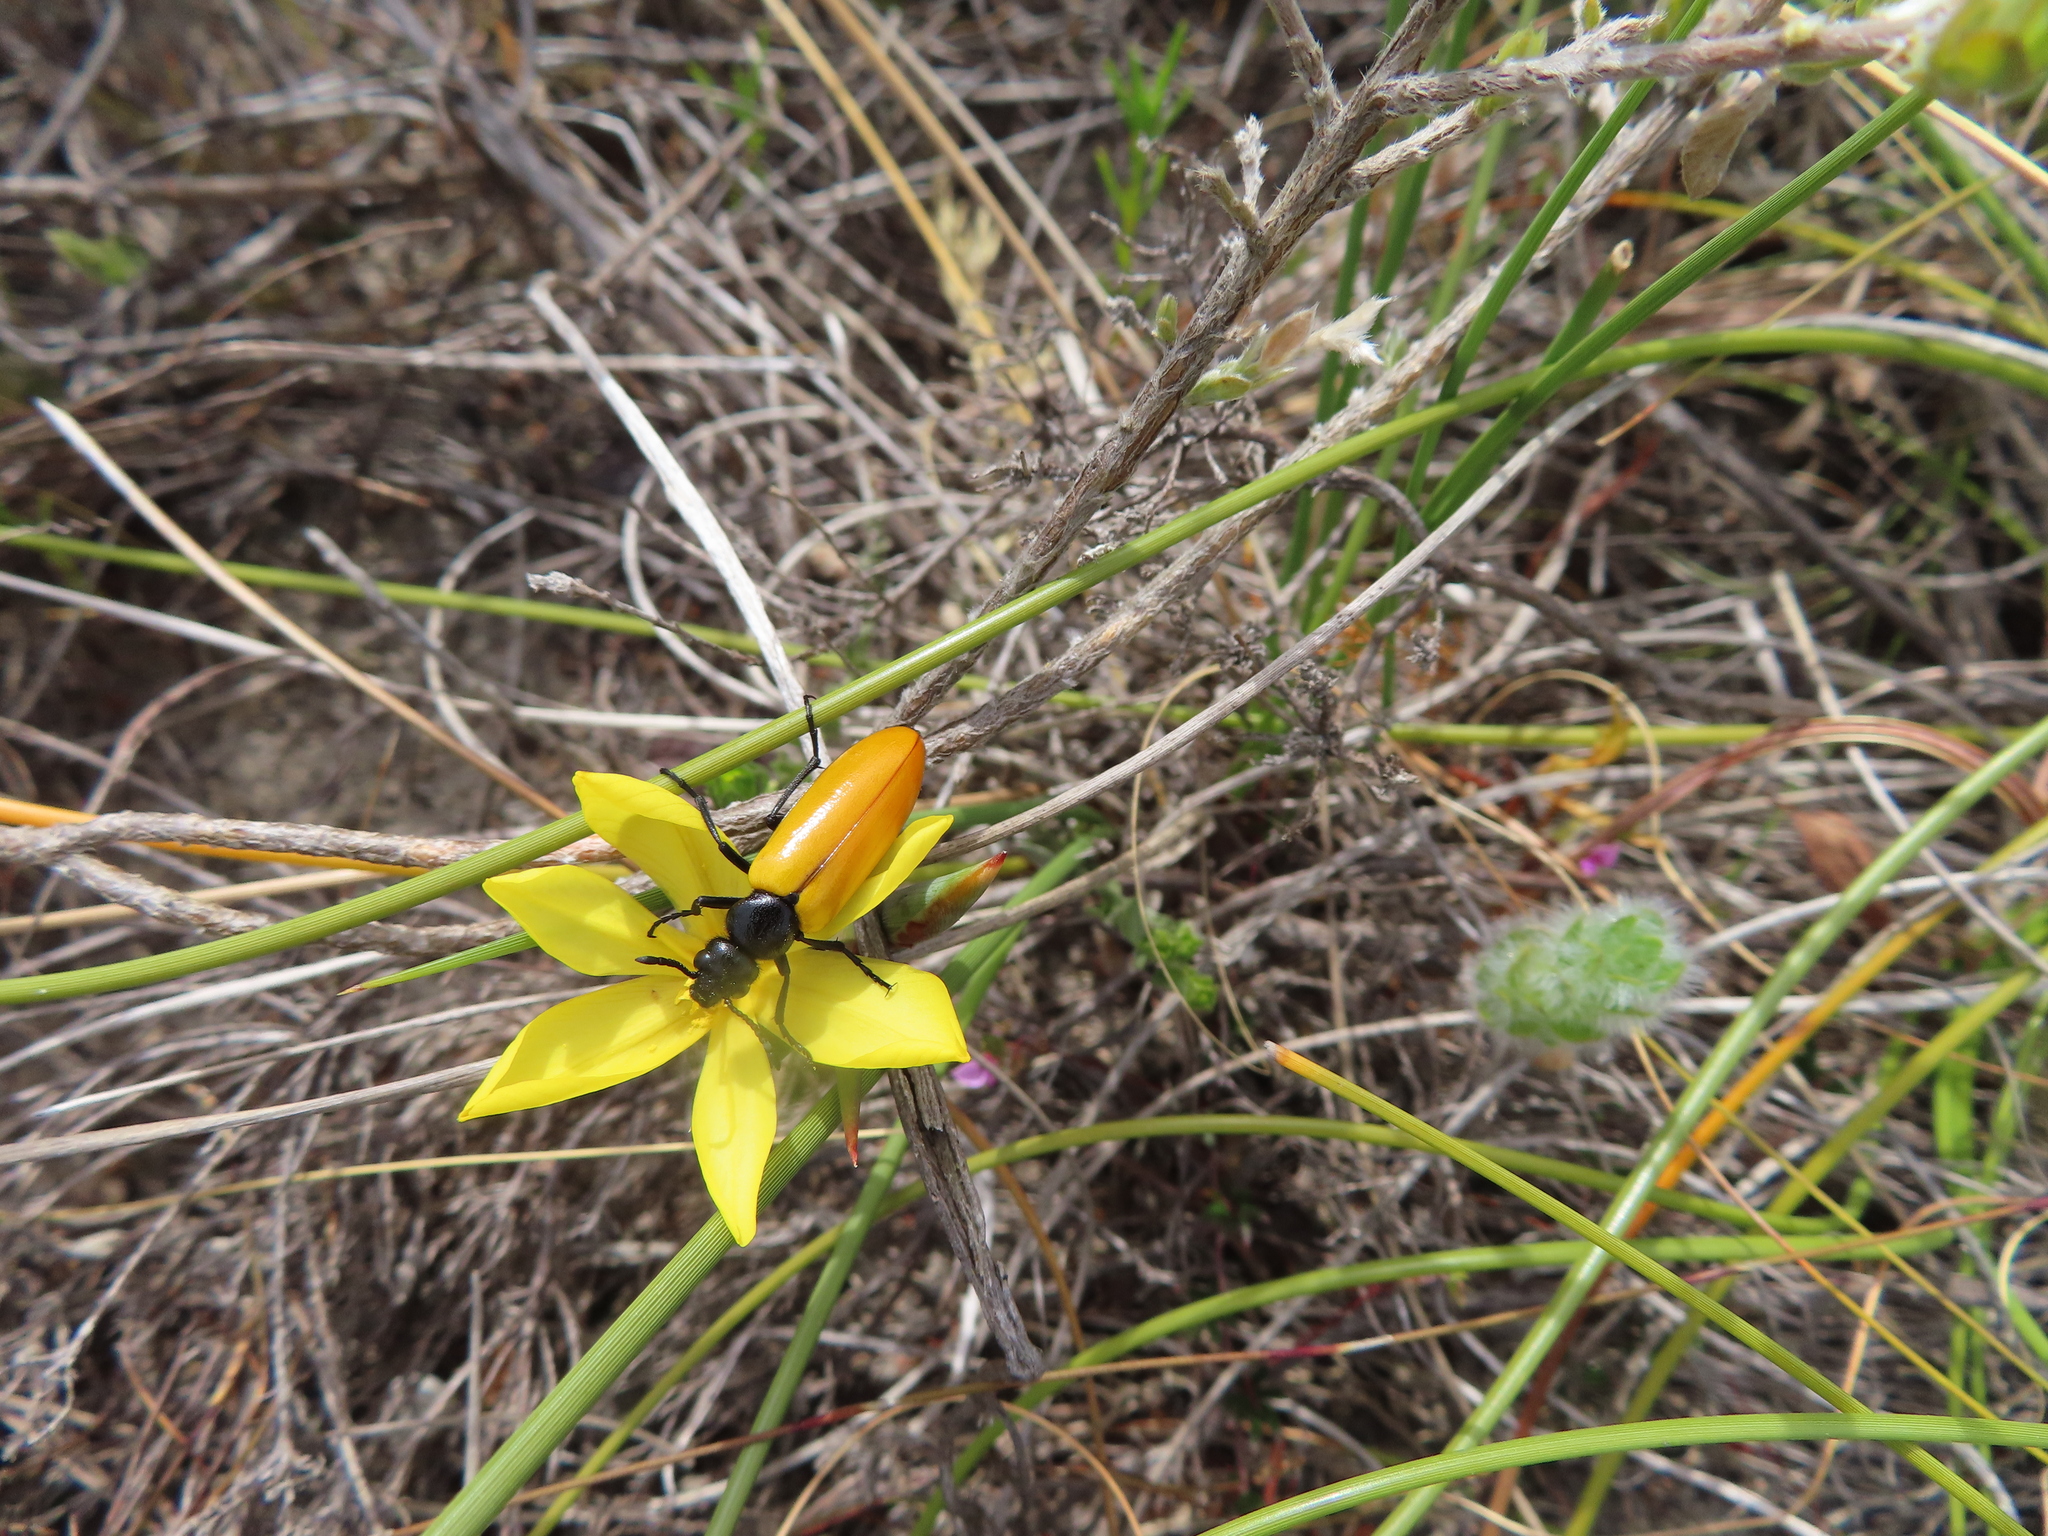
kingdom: Animalia
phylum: Arthropoda
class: Insecta
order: Coleoptera
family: Meloidae
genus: Prolytta
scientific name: Prolytta coriacea
